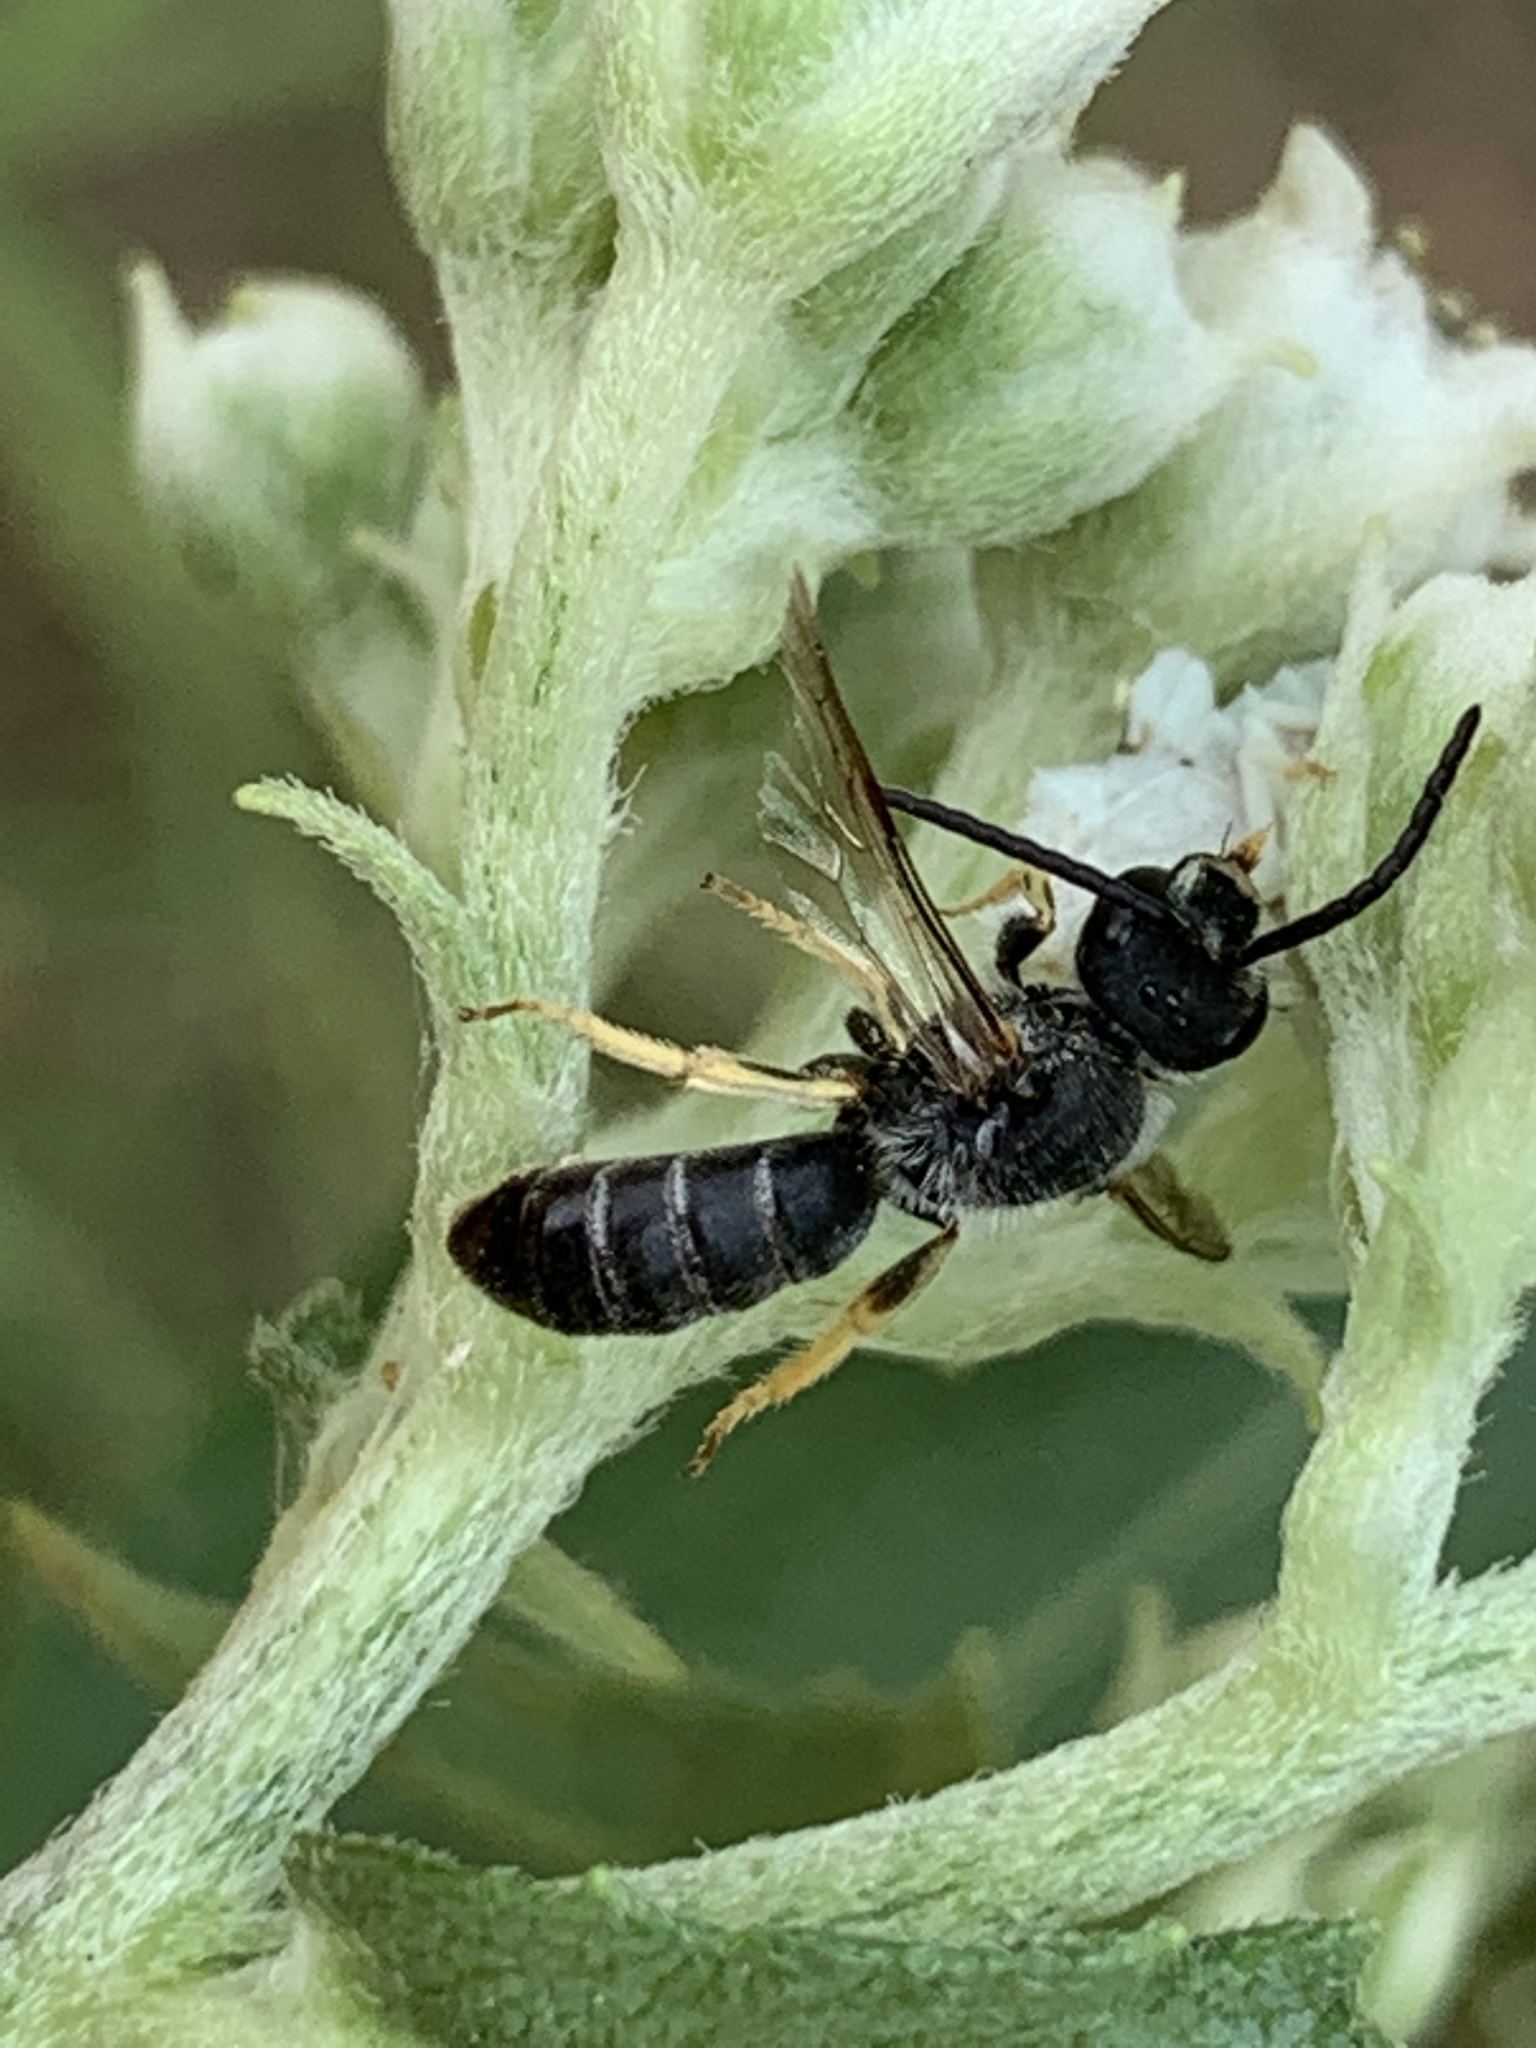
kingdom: Animalia
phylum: Arthropoda
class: Insecta
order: Hymenoptera
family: Halictidae
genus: Halictus
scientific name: Halictus rubicundus
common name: Orange-legged furrow bee
